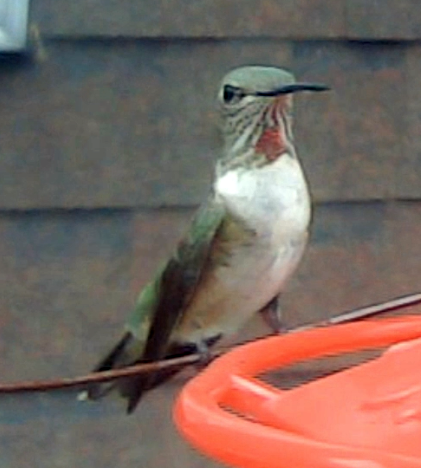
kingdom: Animalia
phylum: Chordata
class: Aves
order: Apodiformes
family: Trochilidae
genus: Archilochus
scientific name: Archilochus colubris
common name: Ruby-throated hummingbird
